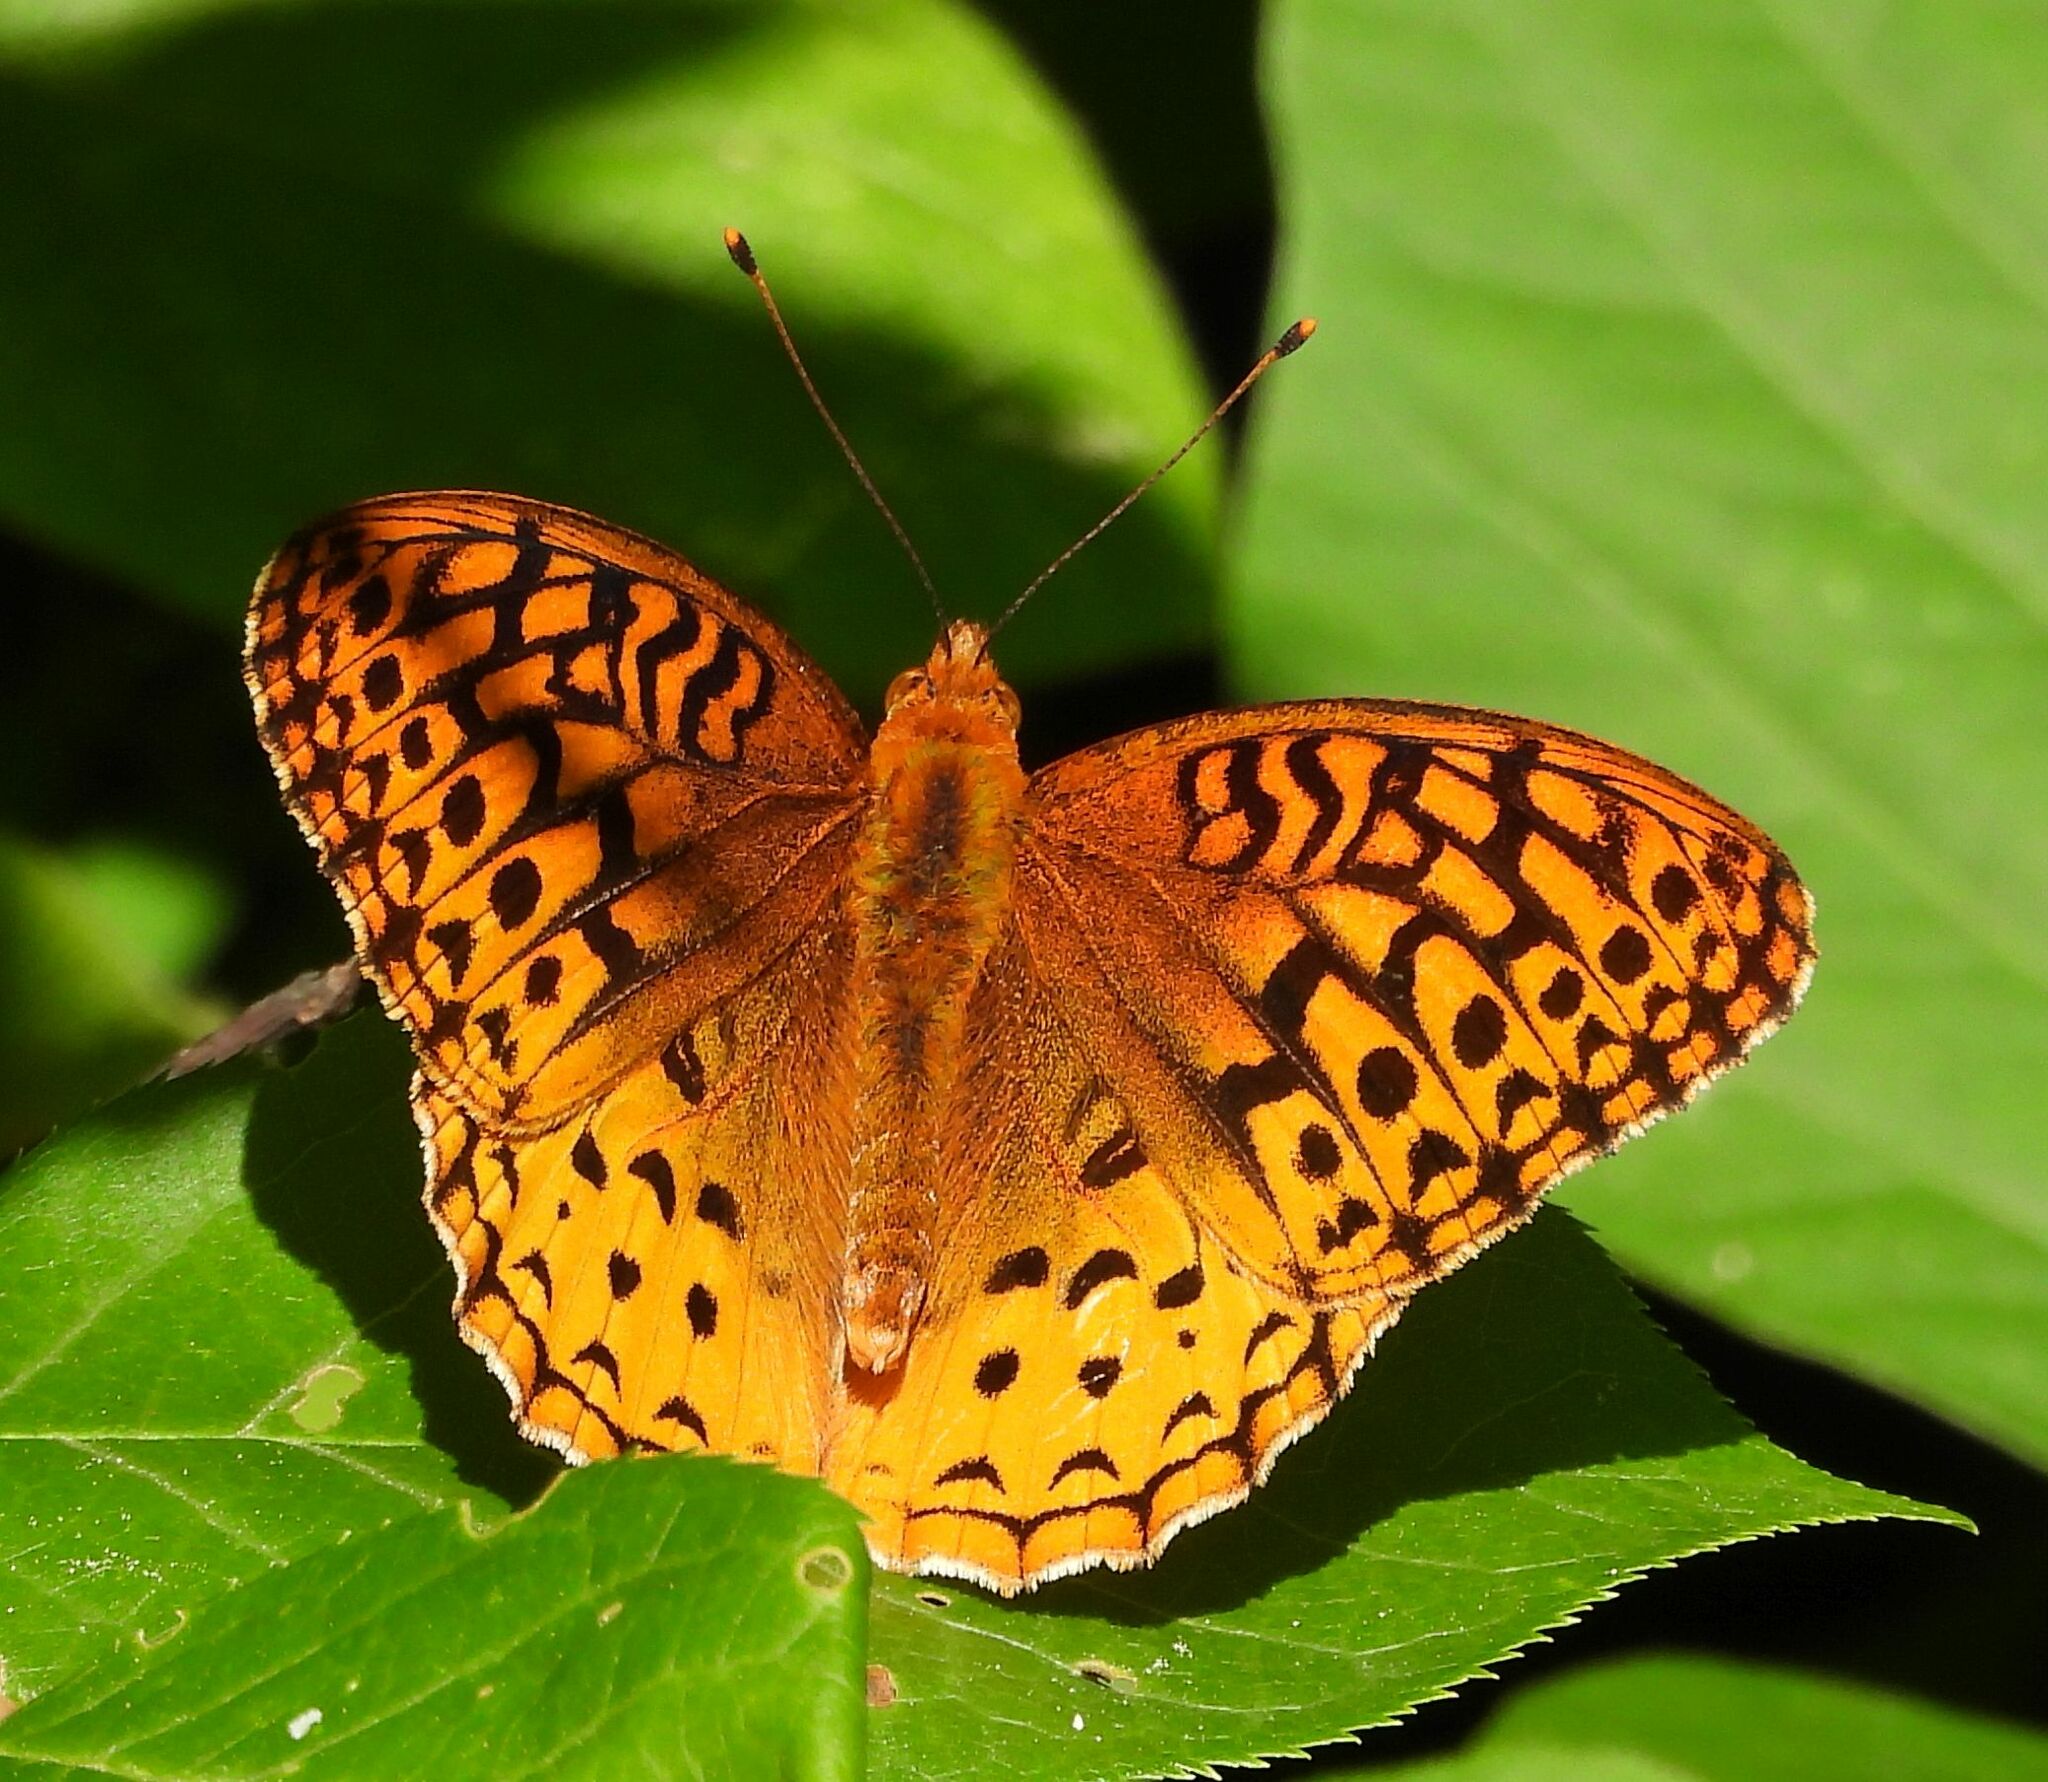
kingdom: Animalia
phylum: Arthropoda
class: Insecta
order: Lepidoptera
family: Nymphalidae
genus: Speyeria
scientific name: Speyeria cybele
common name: Great spangled fritillary
